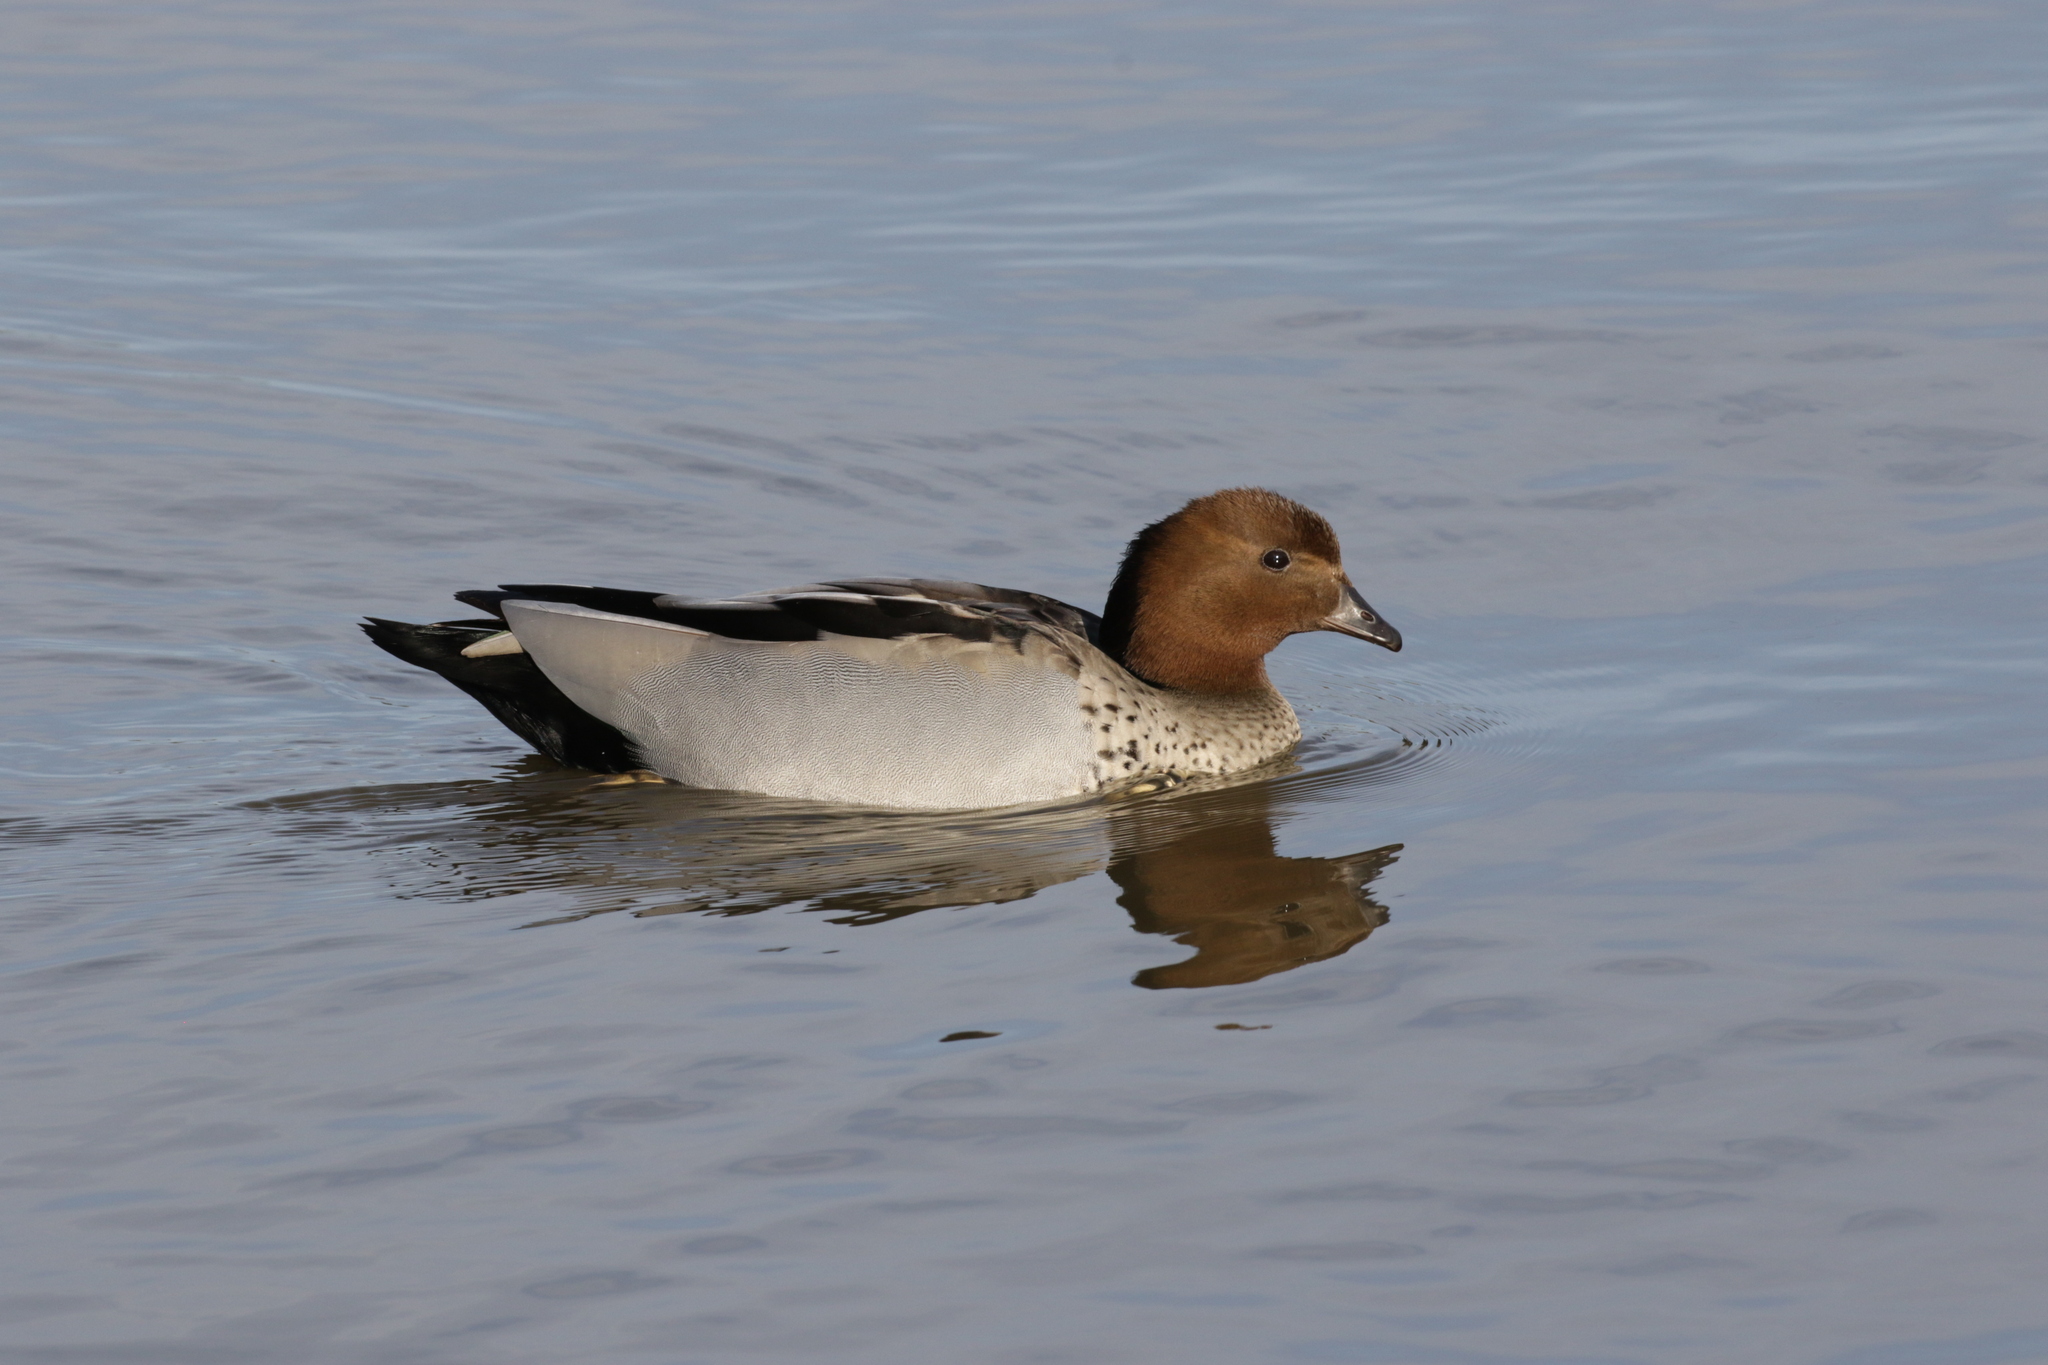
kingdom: Animalia
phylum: Chordata
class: Aves
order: Anseriformes
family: Anatidae
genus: Chenonetta
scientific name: Chenonetta jubata
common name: Maned duck
